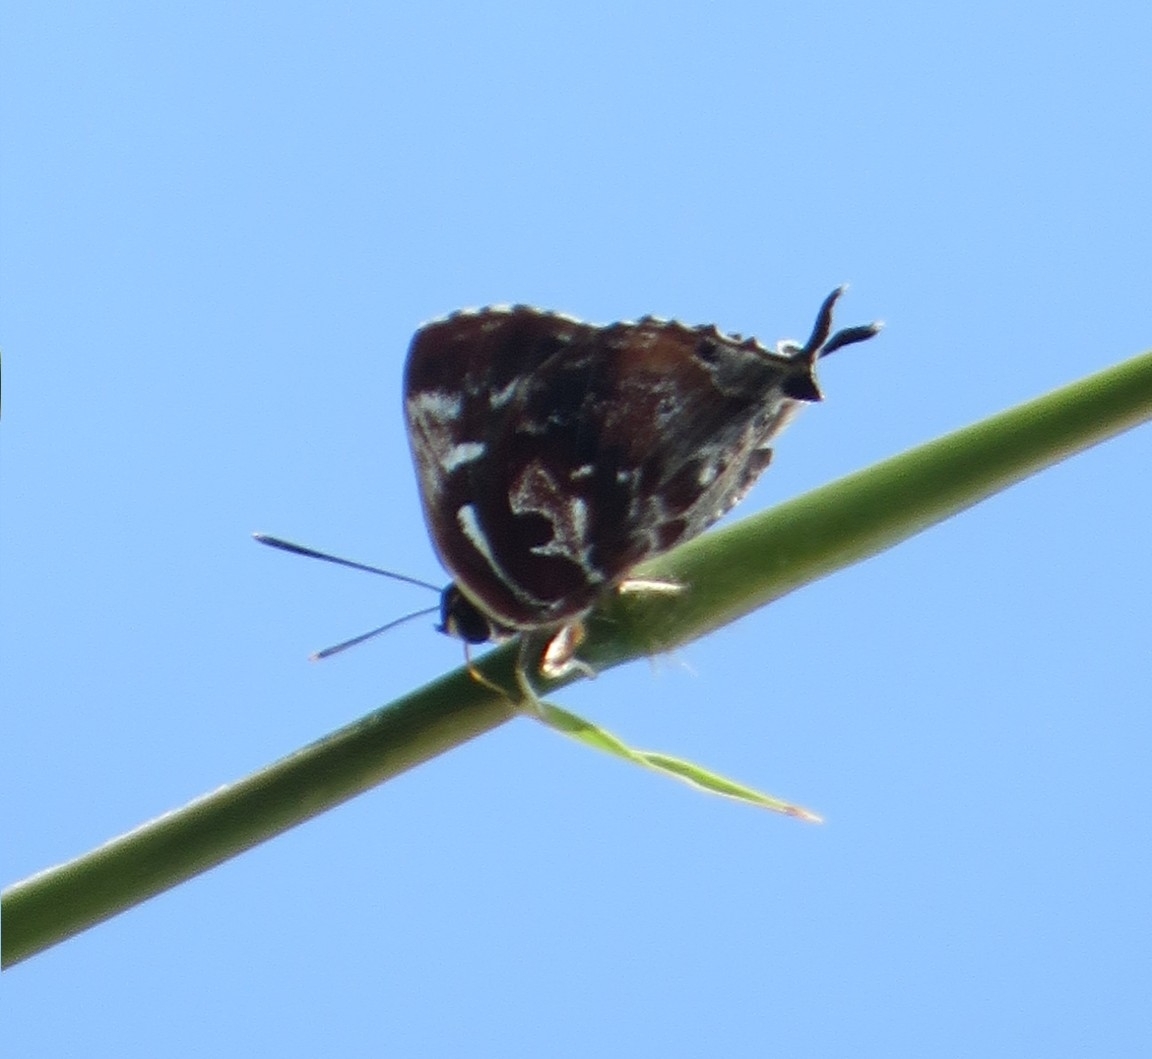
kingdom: Animalia
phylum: Arthropoda
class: Insecta
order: Lepidoptera
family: Lycaenidae
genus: Iraota
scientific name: Iraota timoleon
